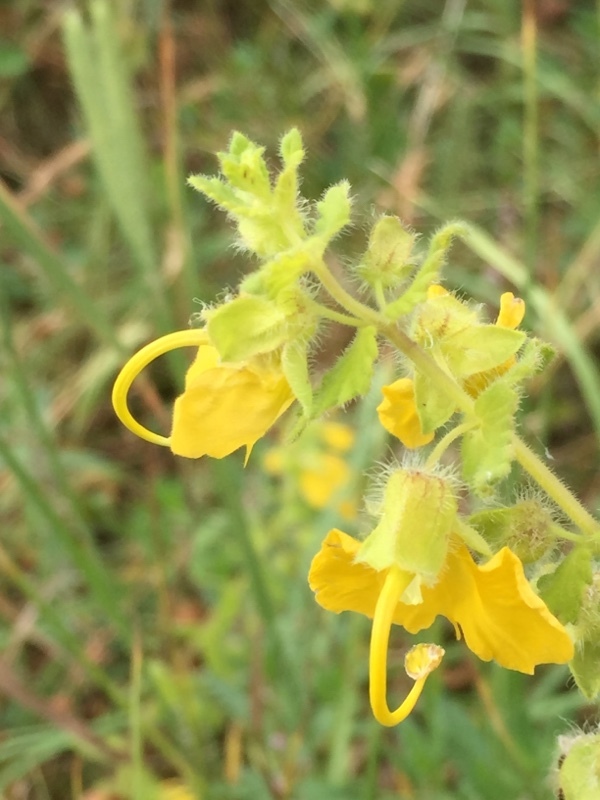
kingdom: Plantae
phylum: Tracheophyta
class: Magnoliopsida
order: Lamiales
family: Orobanchaceae
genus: Rhynchocorys
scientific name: Rhynchocorys orientalis
